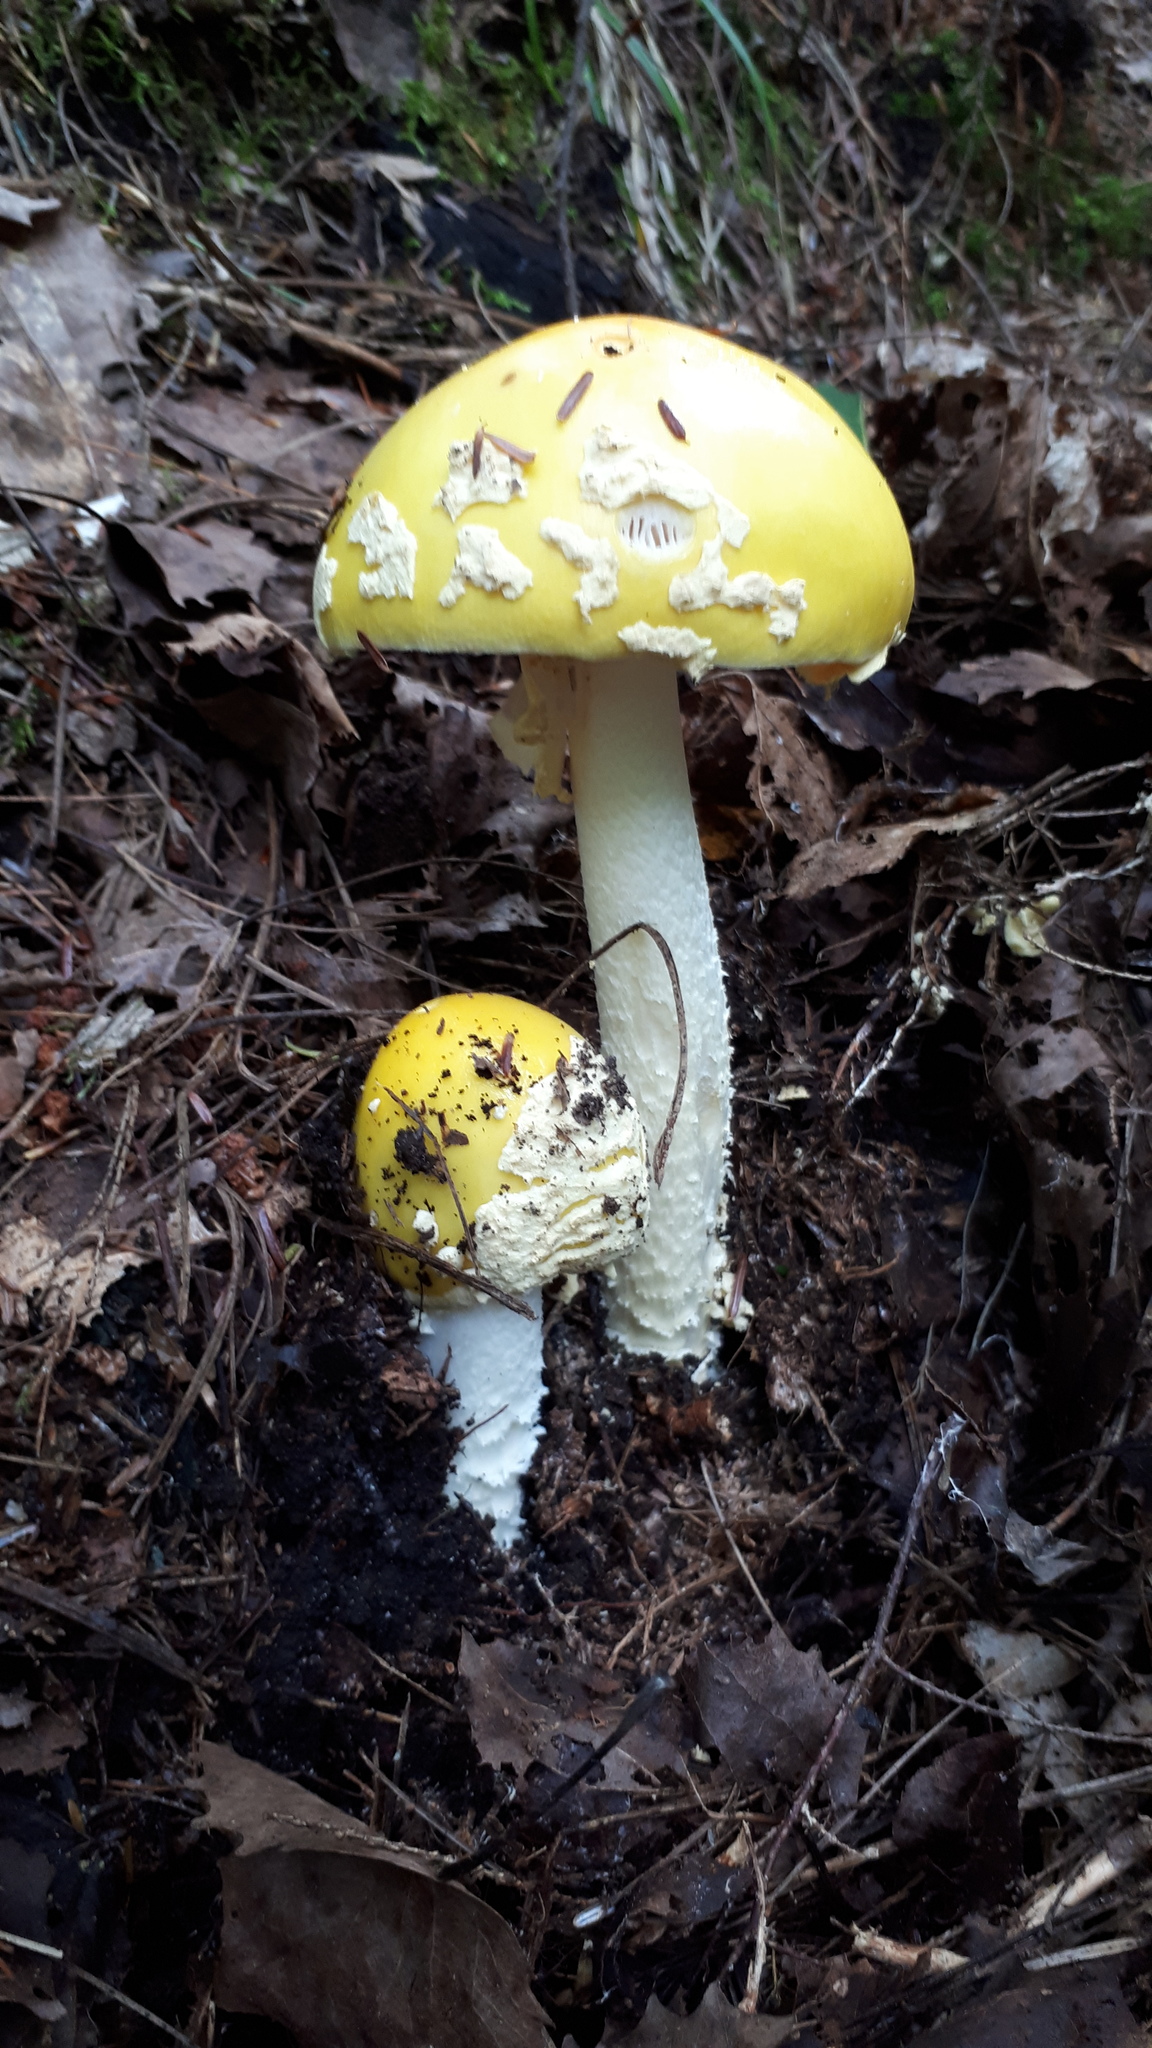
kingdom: Fungi
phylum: Basidiomycota
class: Agaricomycetes
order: Agaricales
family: Amanitaceae
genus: Amanita
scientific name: Amanita muscaria
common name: Fly agaric
